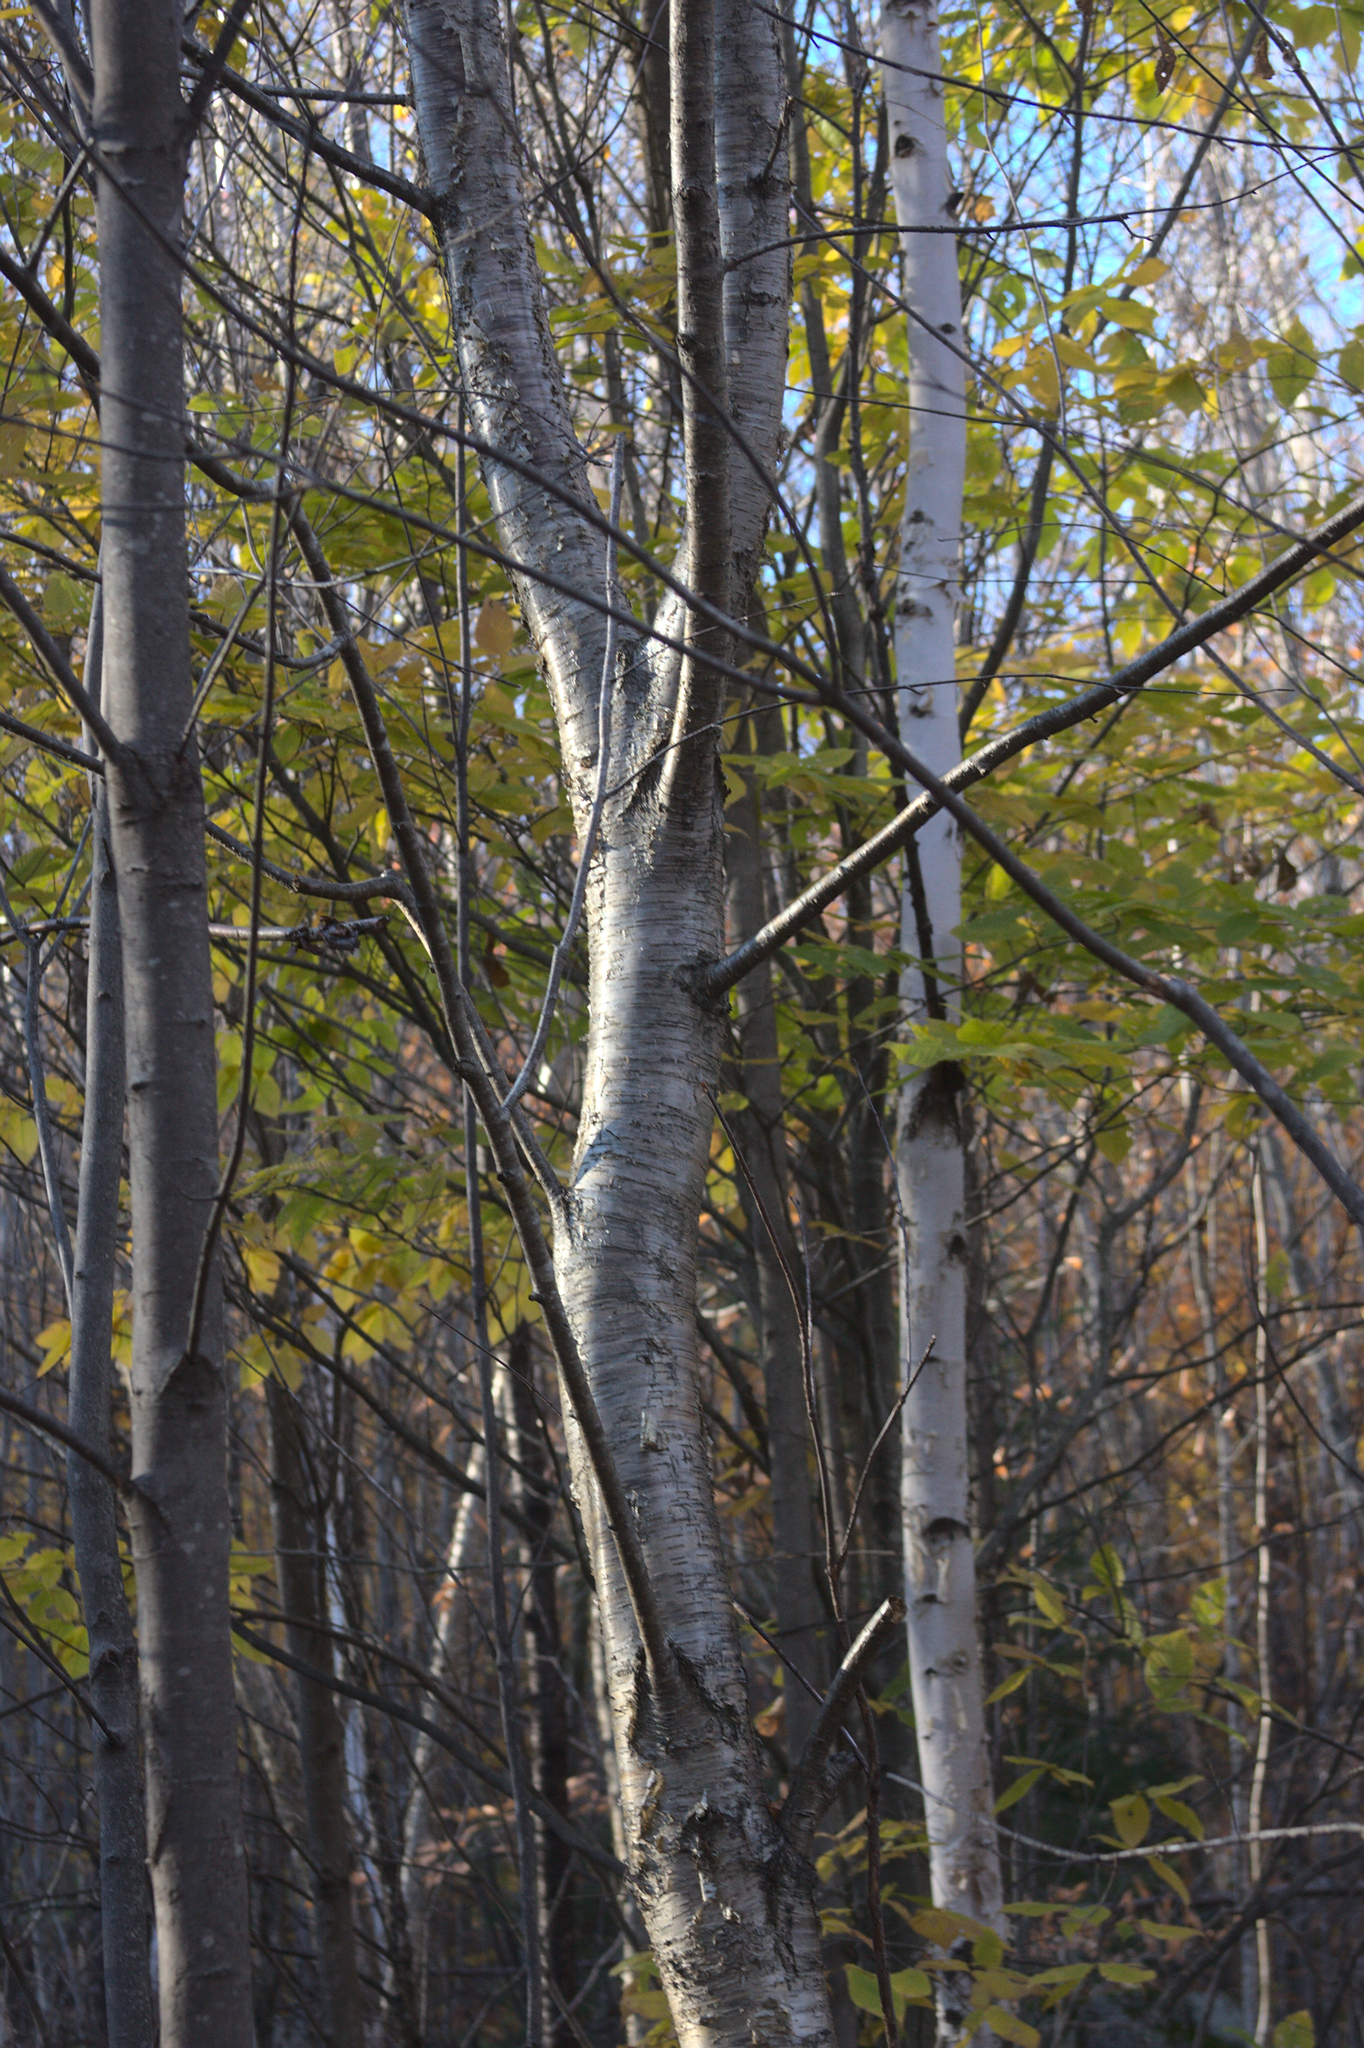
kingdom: Plantae
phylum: Tracheophyta
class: Magnoliopsida
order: Fagales
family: Betulaceae
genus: Betula
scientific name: Betula alleghaniensis
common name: Yellow birch
